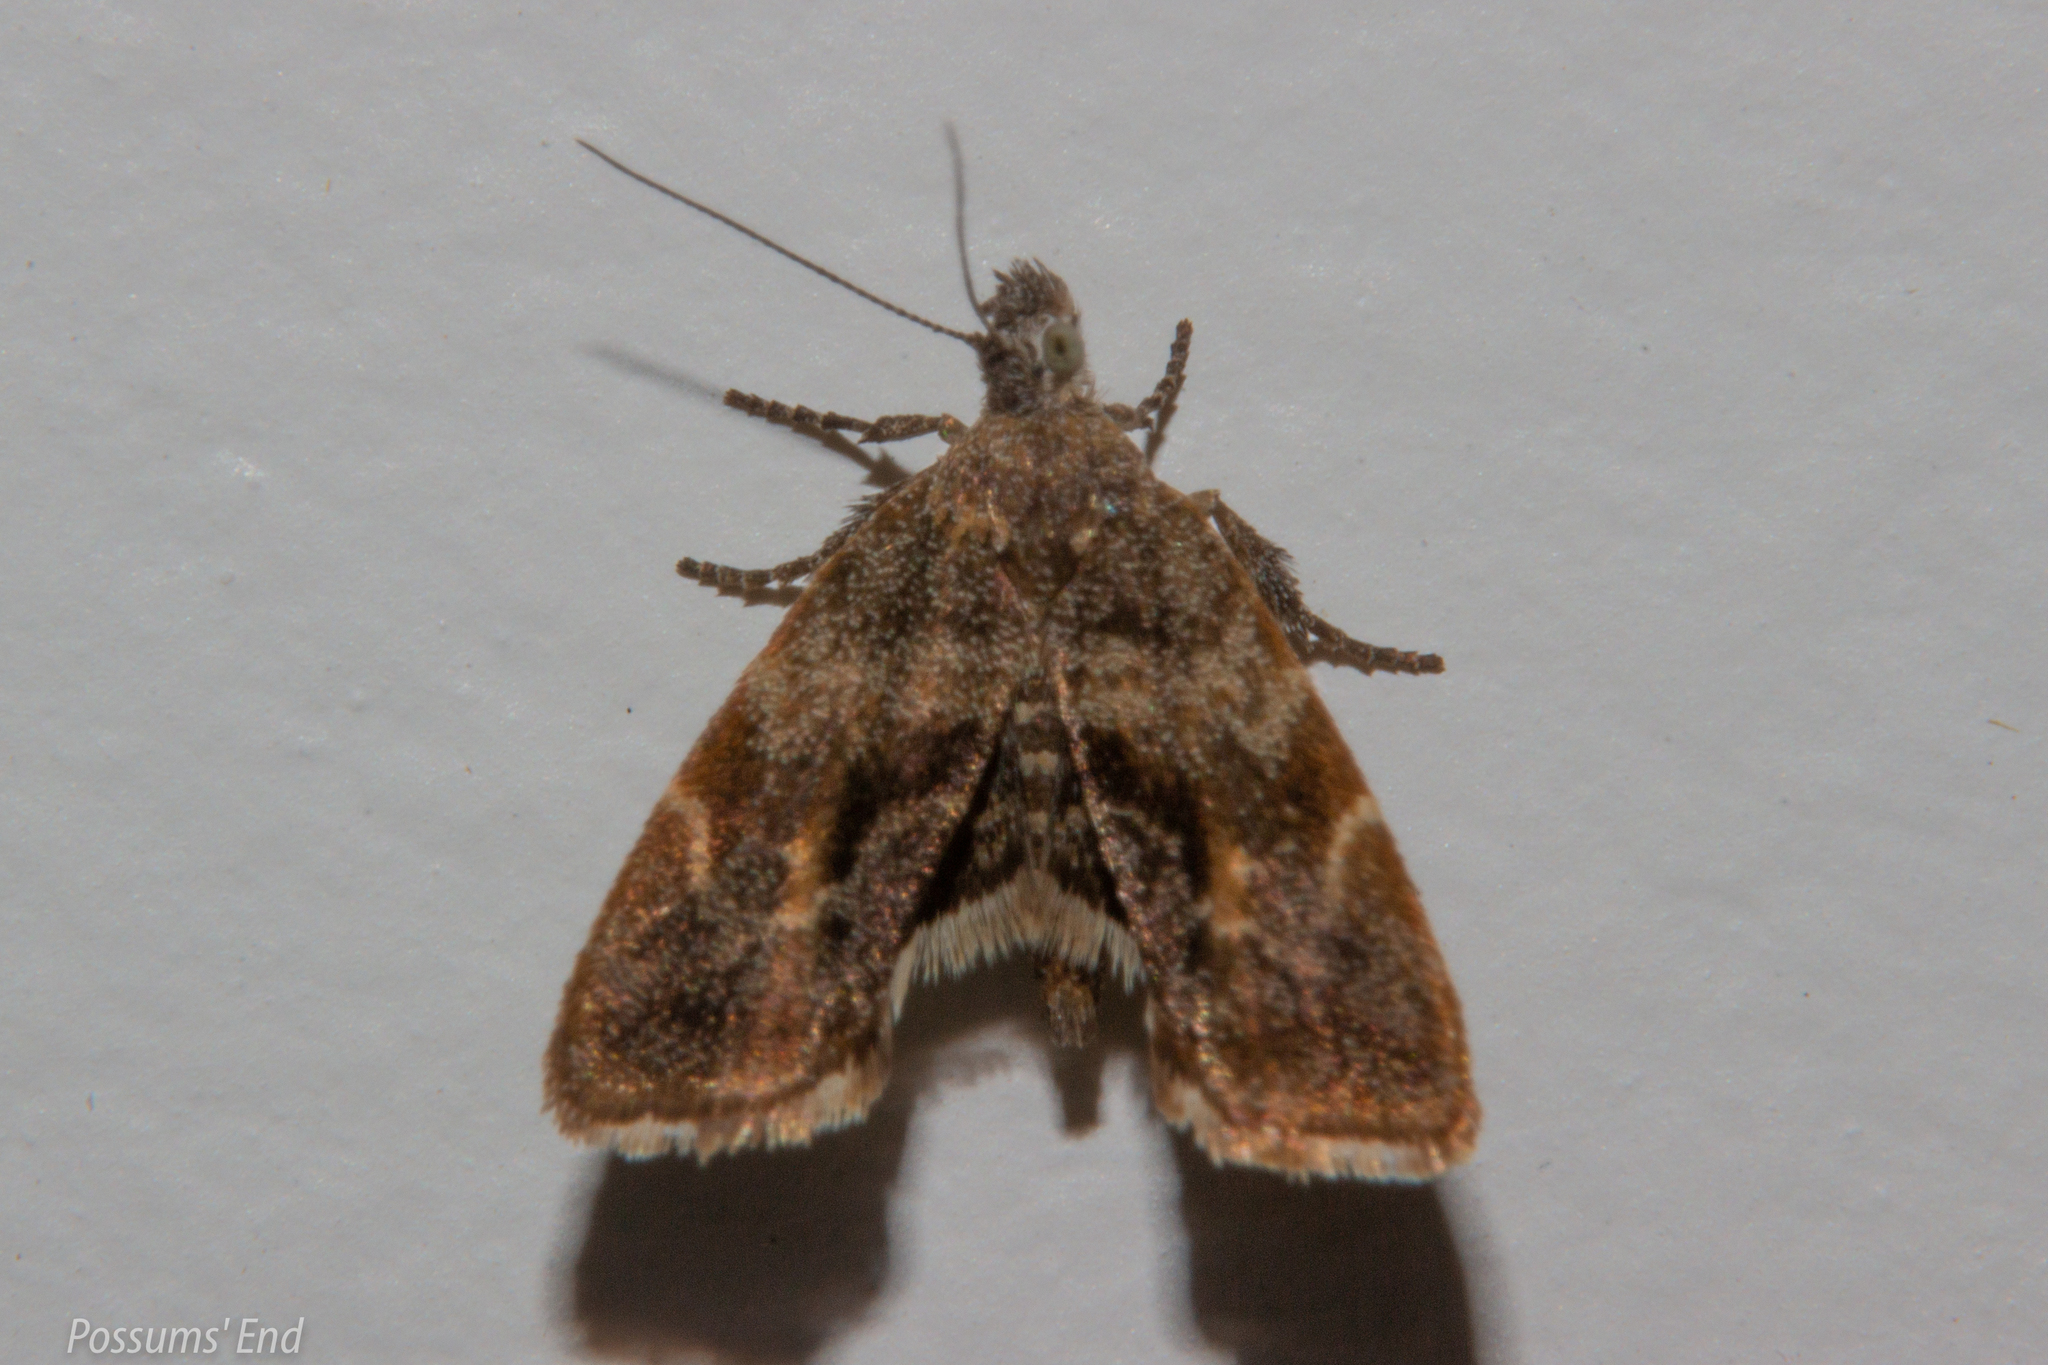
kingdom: Animalia
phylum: Arthropoda
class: Insecta
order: Lepidoptera
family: Choreutidae
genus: Asterivora
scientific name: Asterivora colpota
